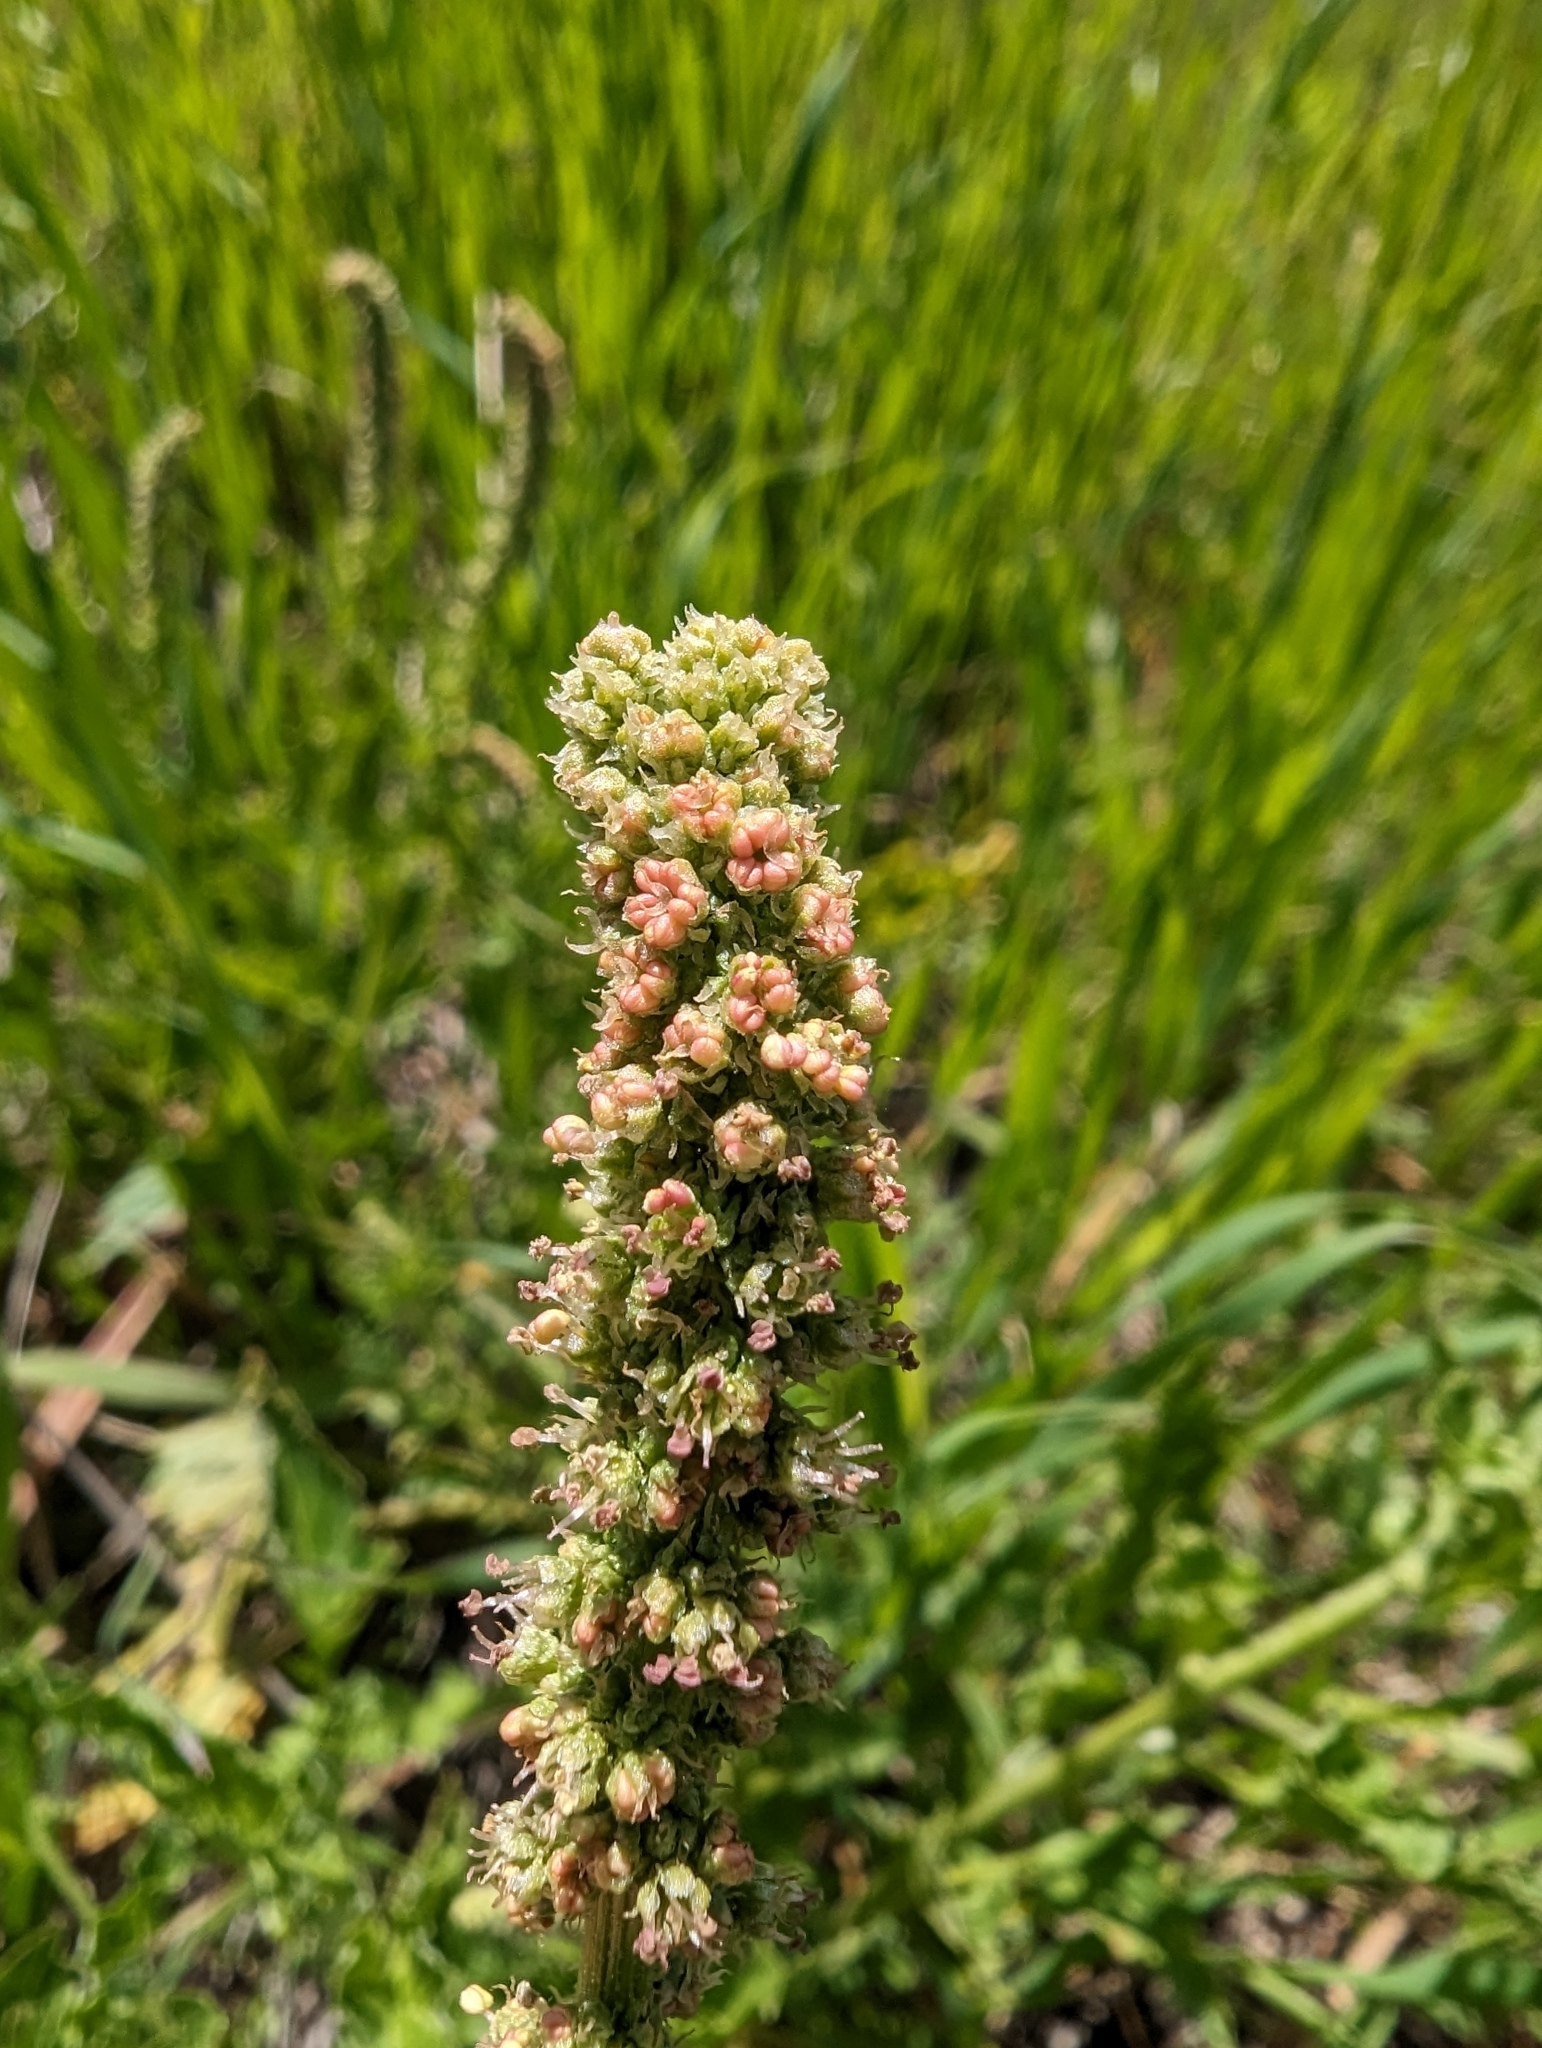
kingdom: Plantae
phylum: Tracheophyta
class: Magnoliopsida
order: Caryophyllales
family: Amaranthaceae
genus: Blitum
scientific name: Blitum californicum
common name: California goosefoot
